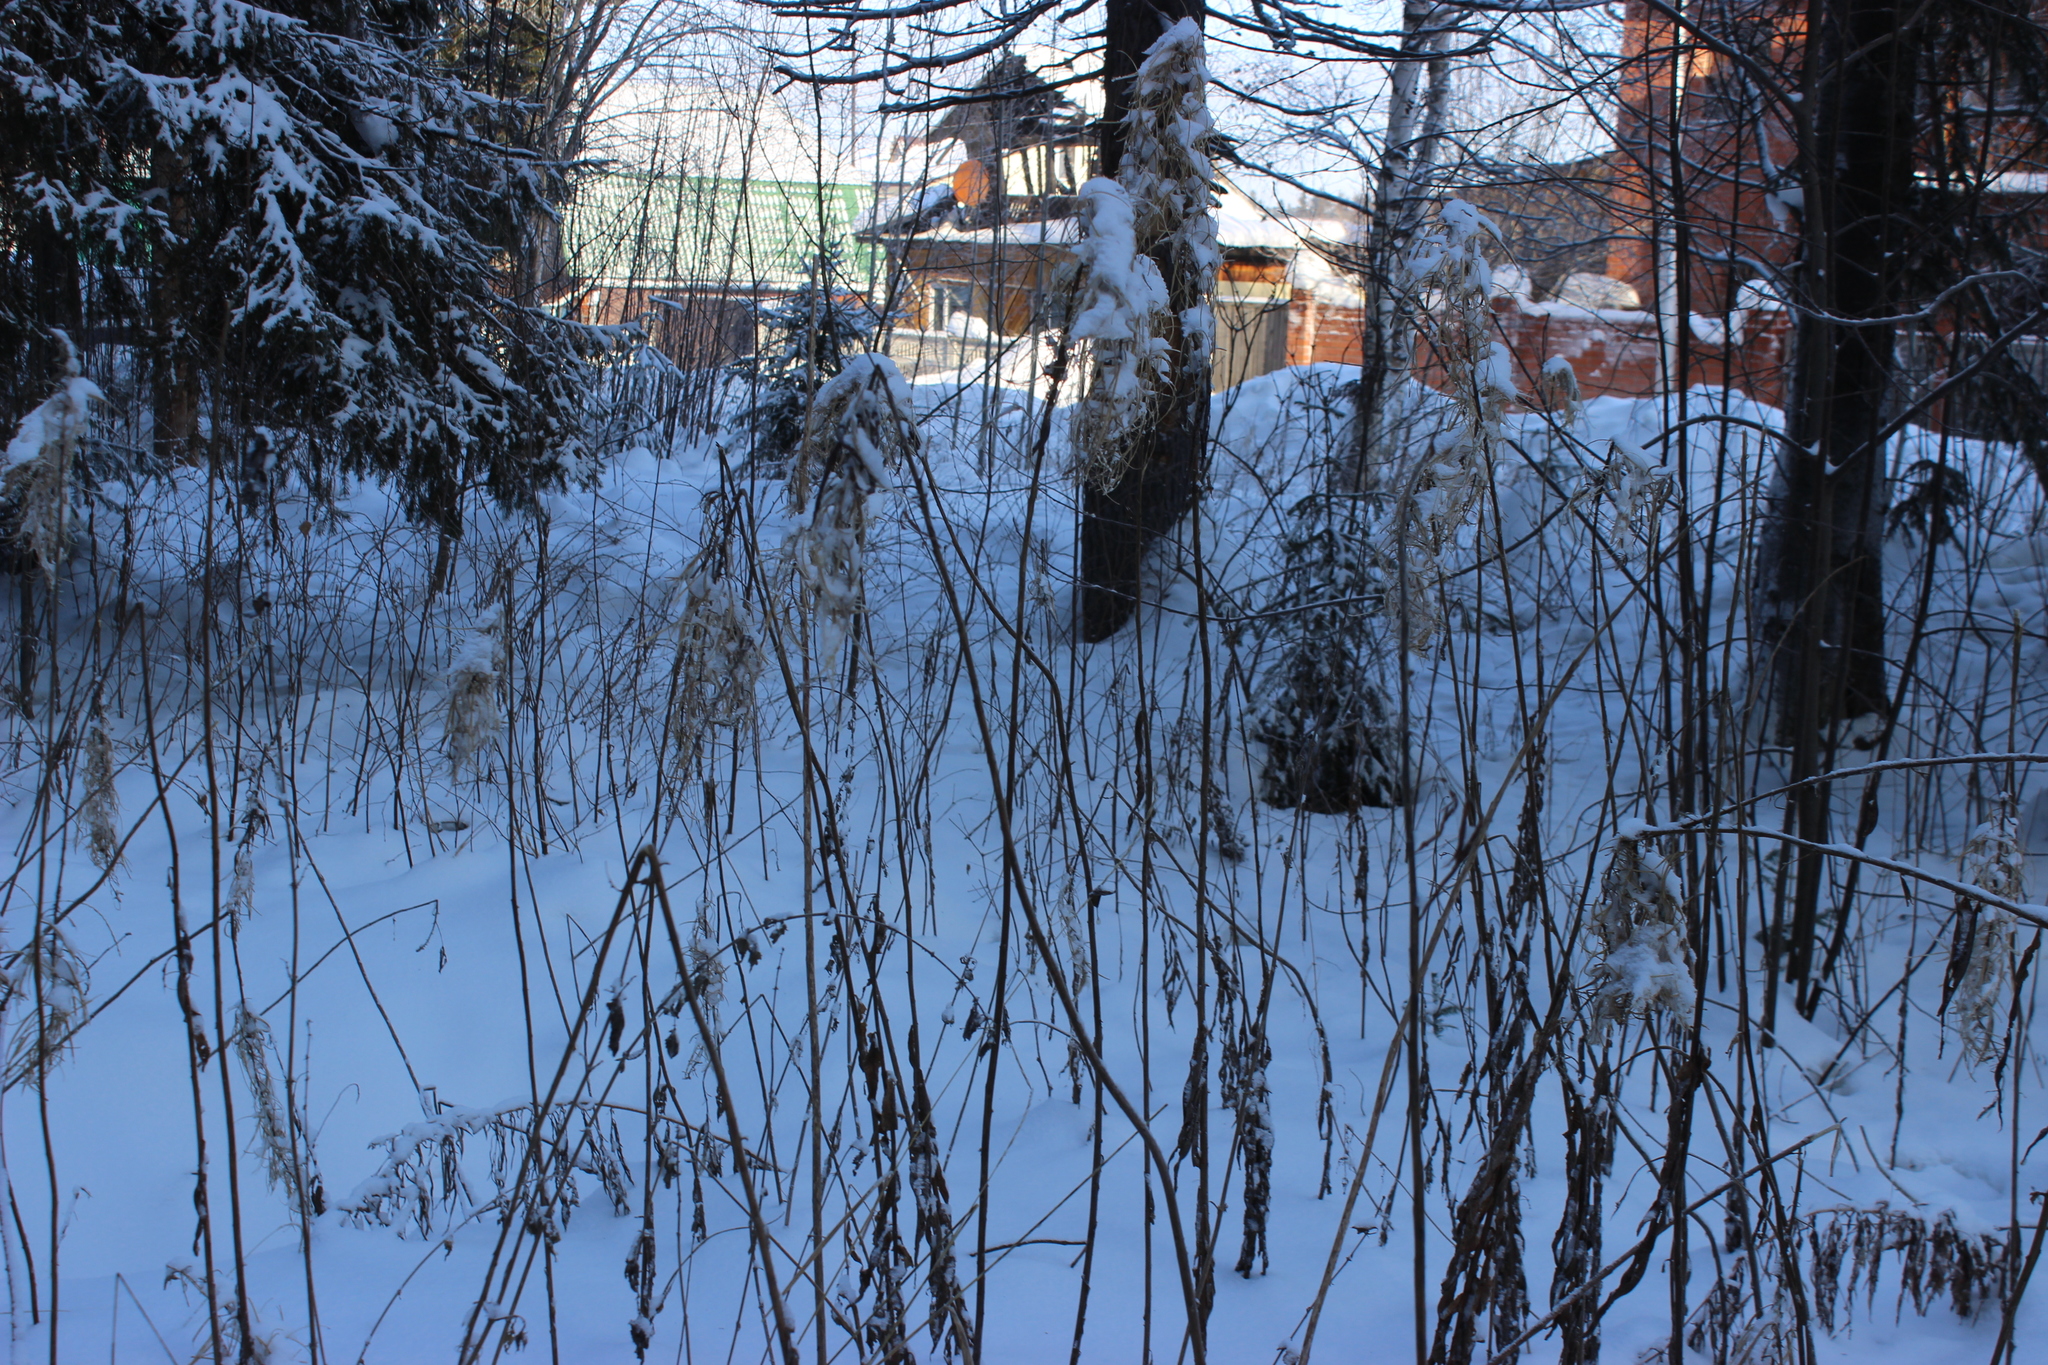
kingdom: Plantae
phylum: Tracheophyta
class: Magnoliopsida
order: Myrtales
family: Onagraceae
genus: Chamaenerion
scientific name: Chamaenerion angustifolium
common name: Fireweed
